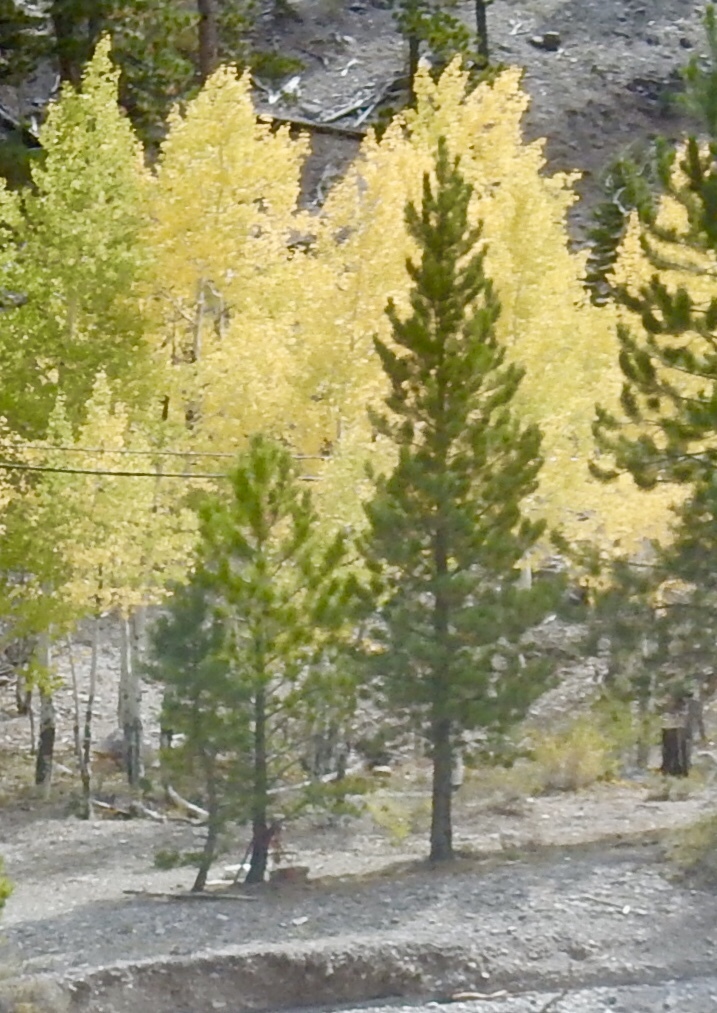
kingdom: Plantae
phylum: Tracheophyta
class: Pinopsida
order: Pinales
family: Pinaceae
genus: Pinus
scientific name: Pinus ponderosa
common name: Western yellow-pine
